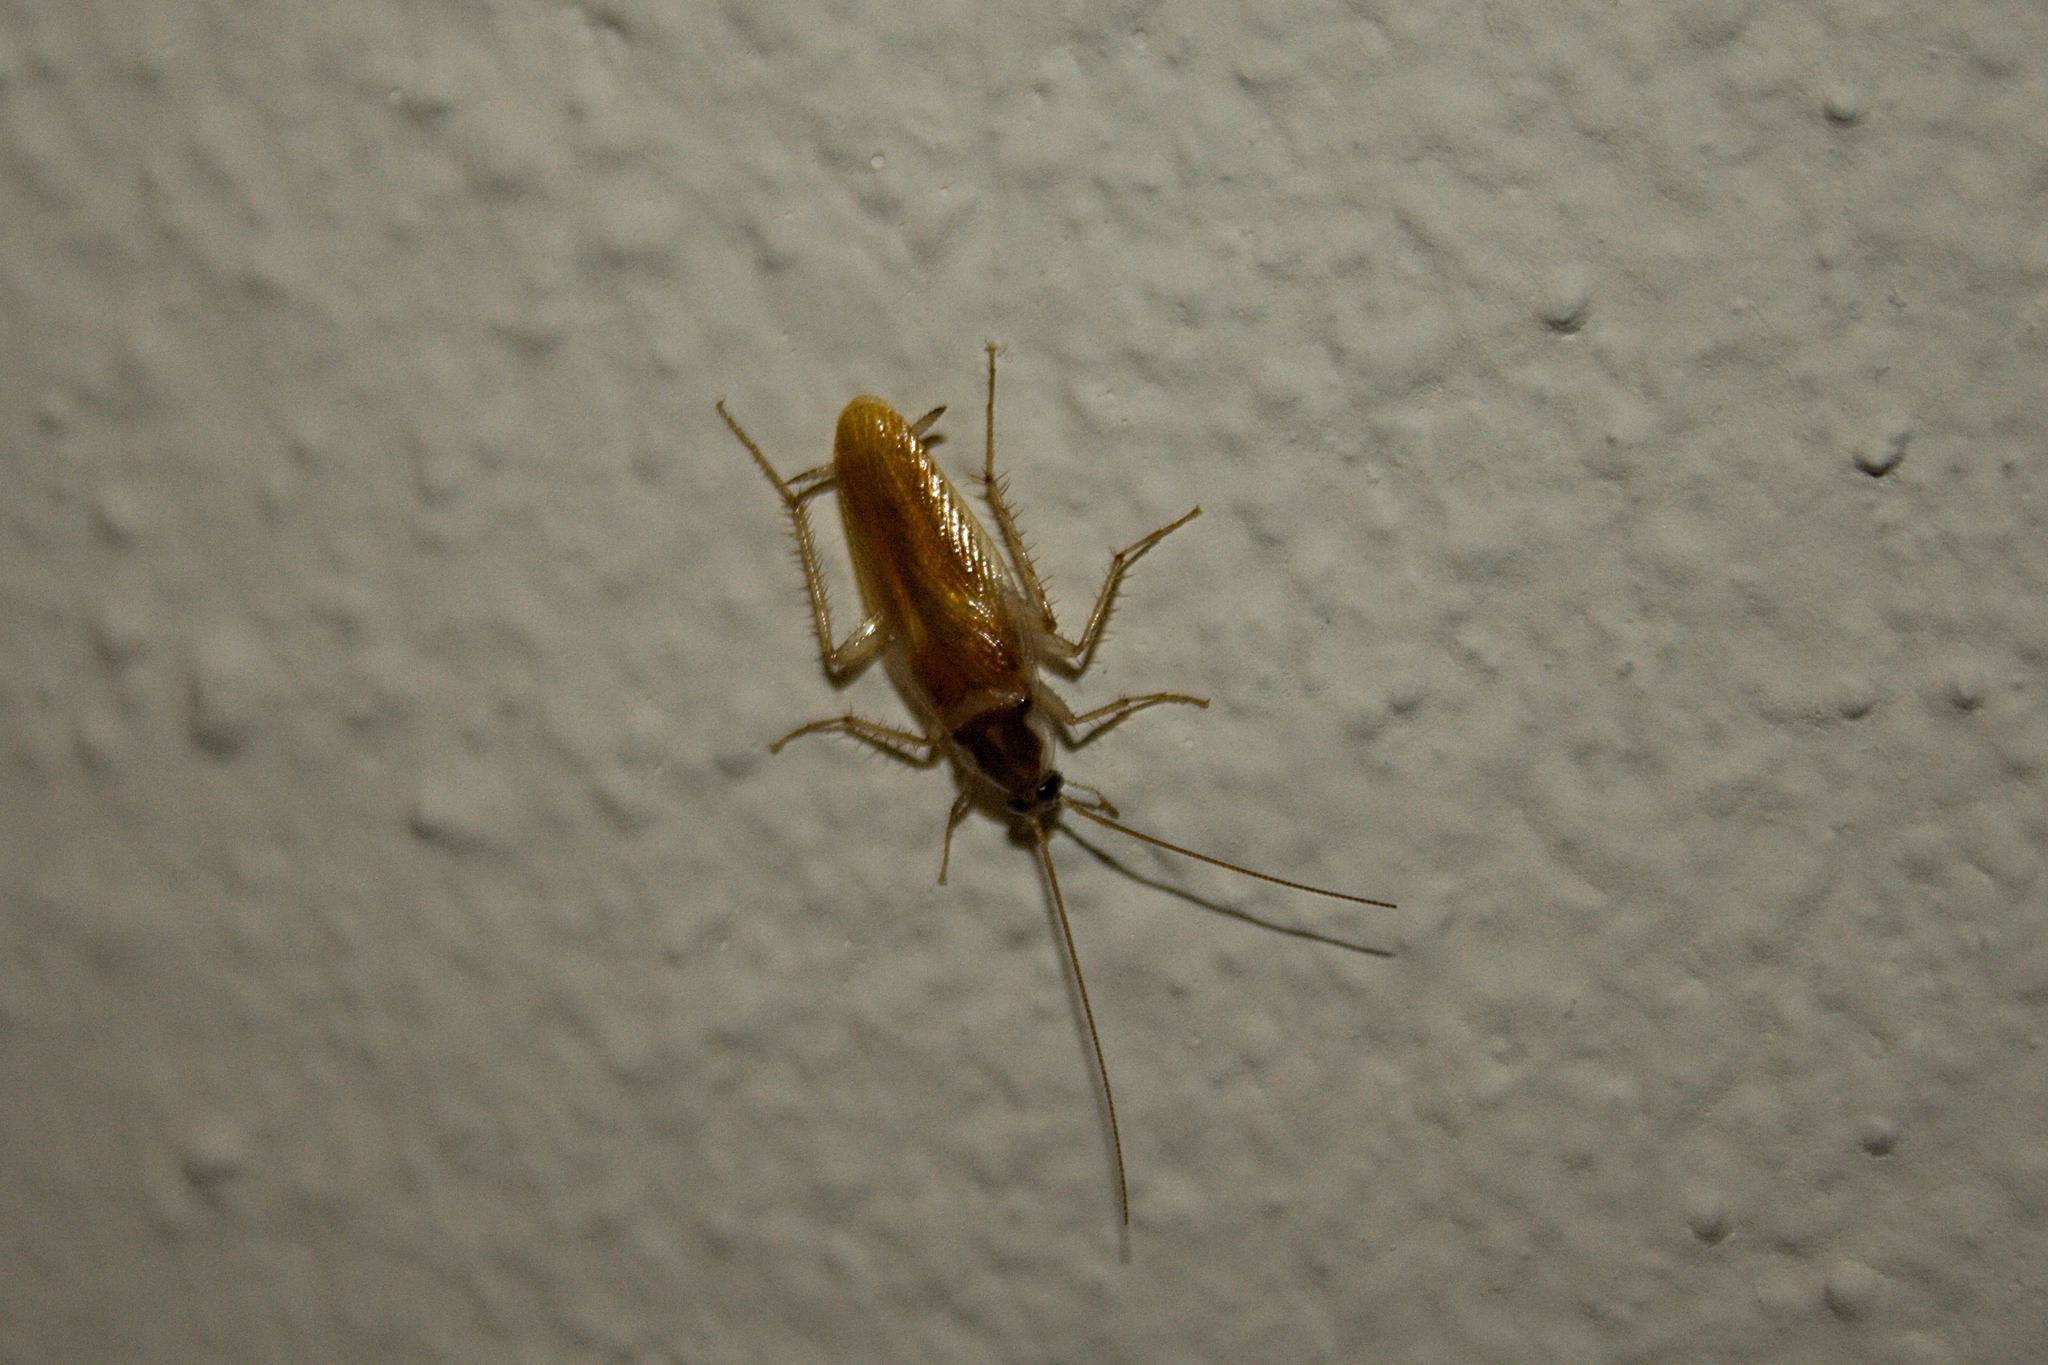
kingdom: Animalia
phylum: Arthropoda
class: Insecta
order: Blattodea
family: Ectobiidae
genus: Supella
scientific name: Supella longipalpa
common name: Brown-banded cockroach
